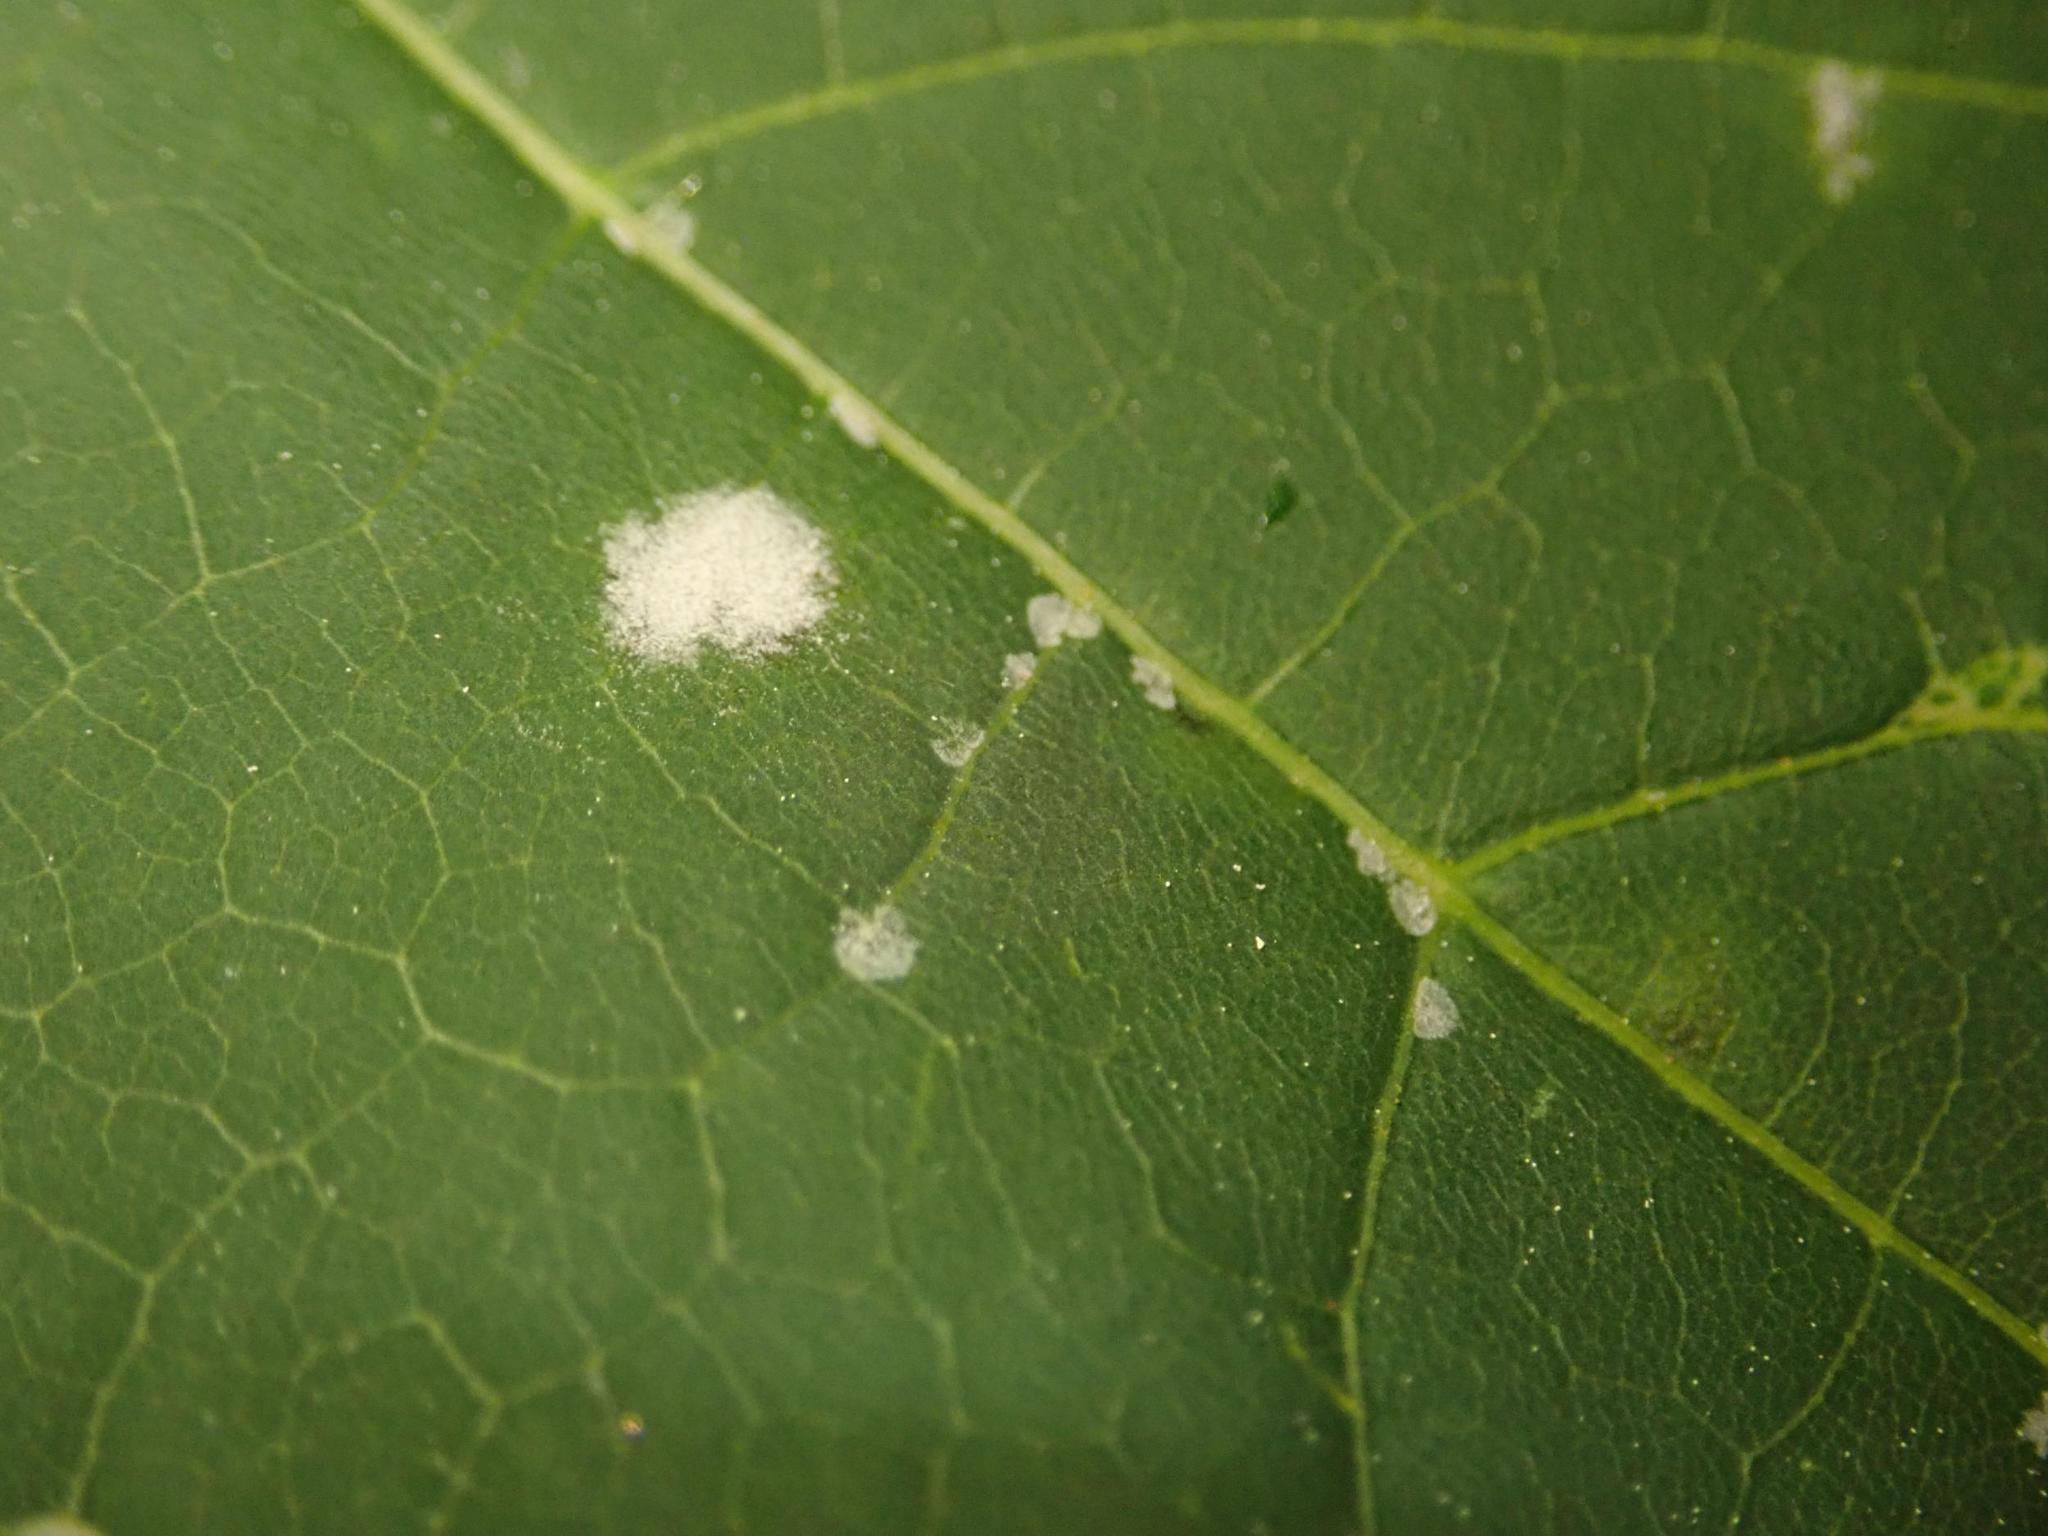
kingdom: Fungi
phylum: Ascomycota
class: Leotiomycetes
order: Helotiales
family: Erysiphaceae
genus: Sawadaea
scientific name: Sawadaea tulasnei
